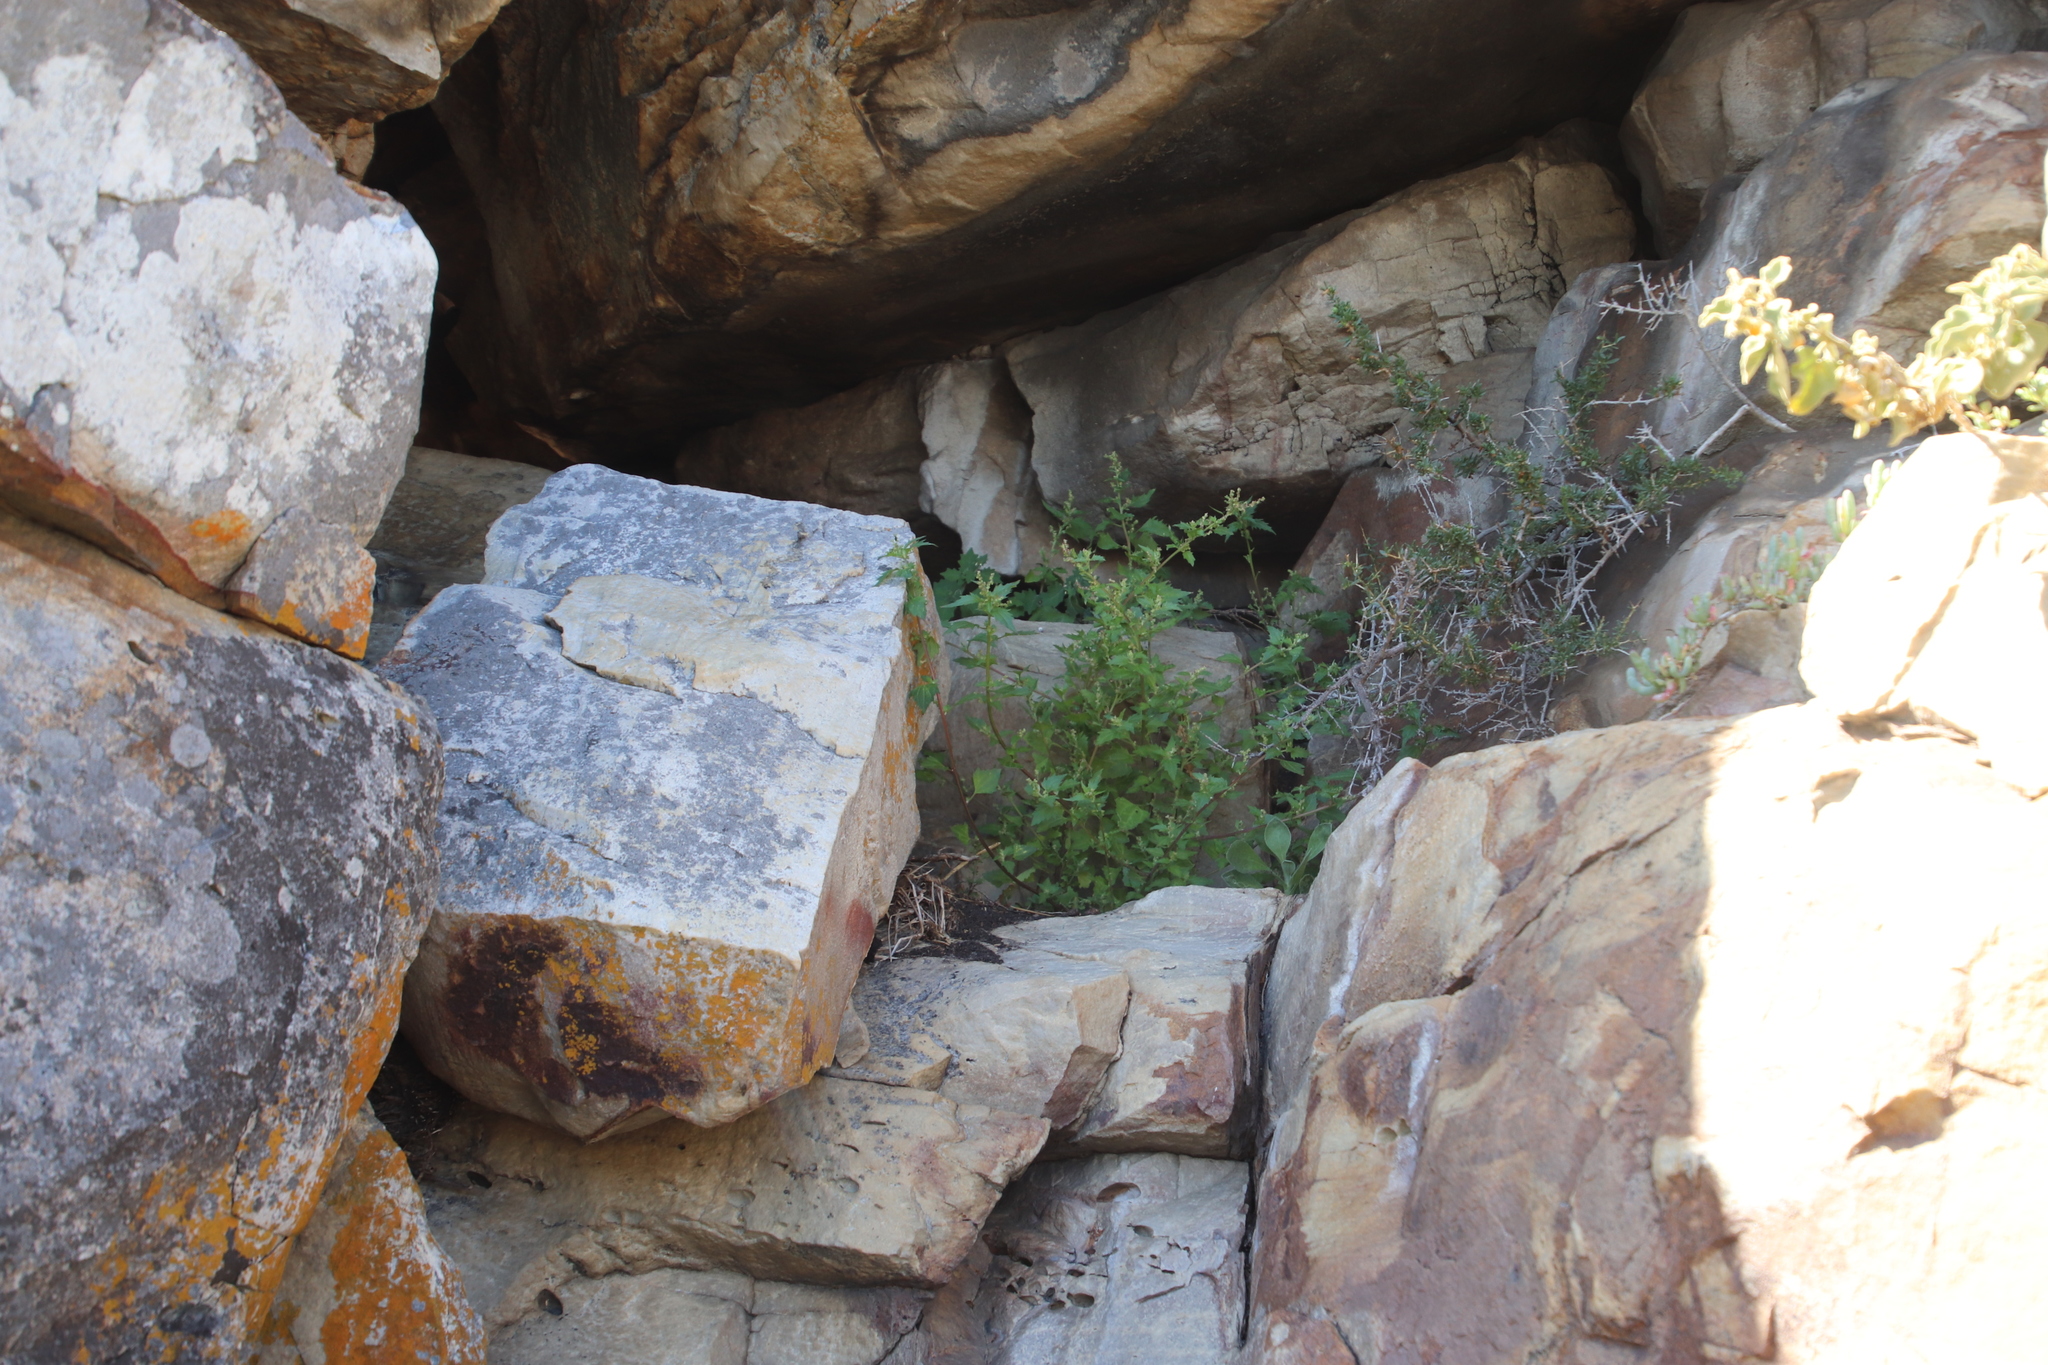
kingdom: Plantae
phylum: Tracheophyta
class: Magnoliopsida
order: Caryophyllales
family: Amaranthaceae
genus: Chenopodiastrum
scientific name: Chenopodiastrum murale
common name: Sowbane
